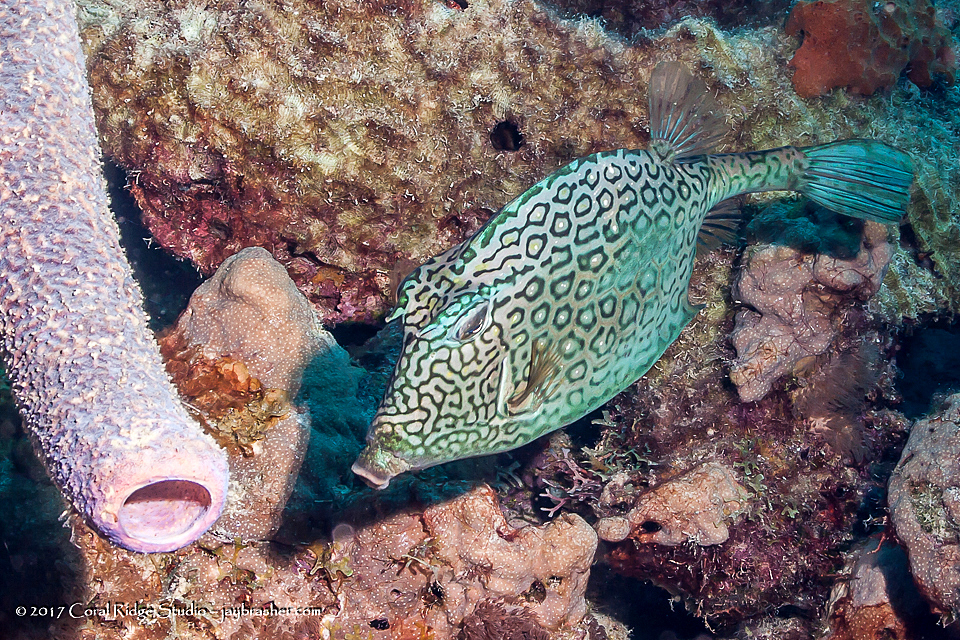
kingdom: Animalia
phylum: Chordata
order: Tetraodontiformes
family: Ostraciidae
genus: Acanthostracion
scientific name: Acanthostracion polygonius
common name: Honeycomb cowfish
